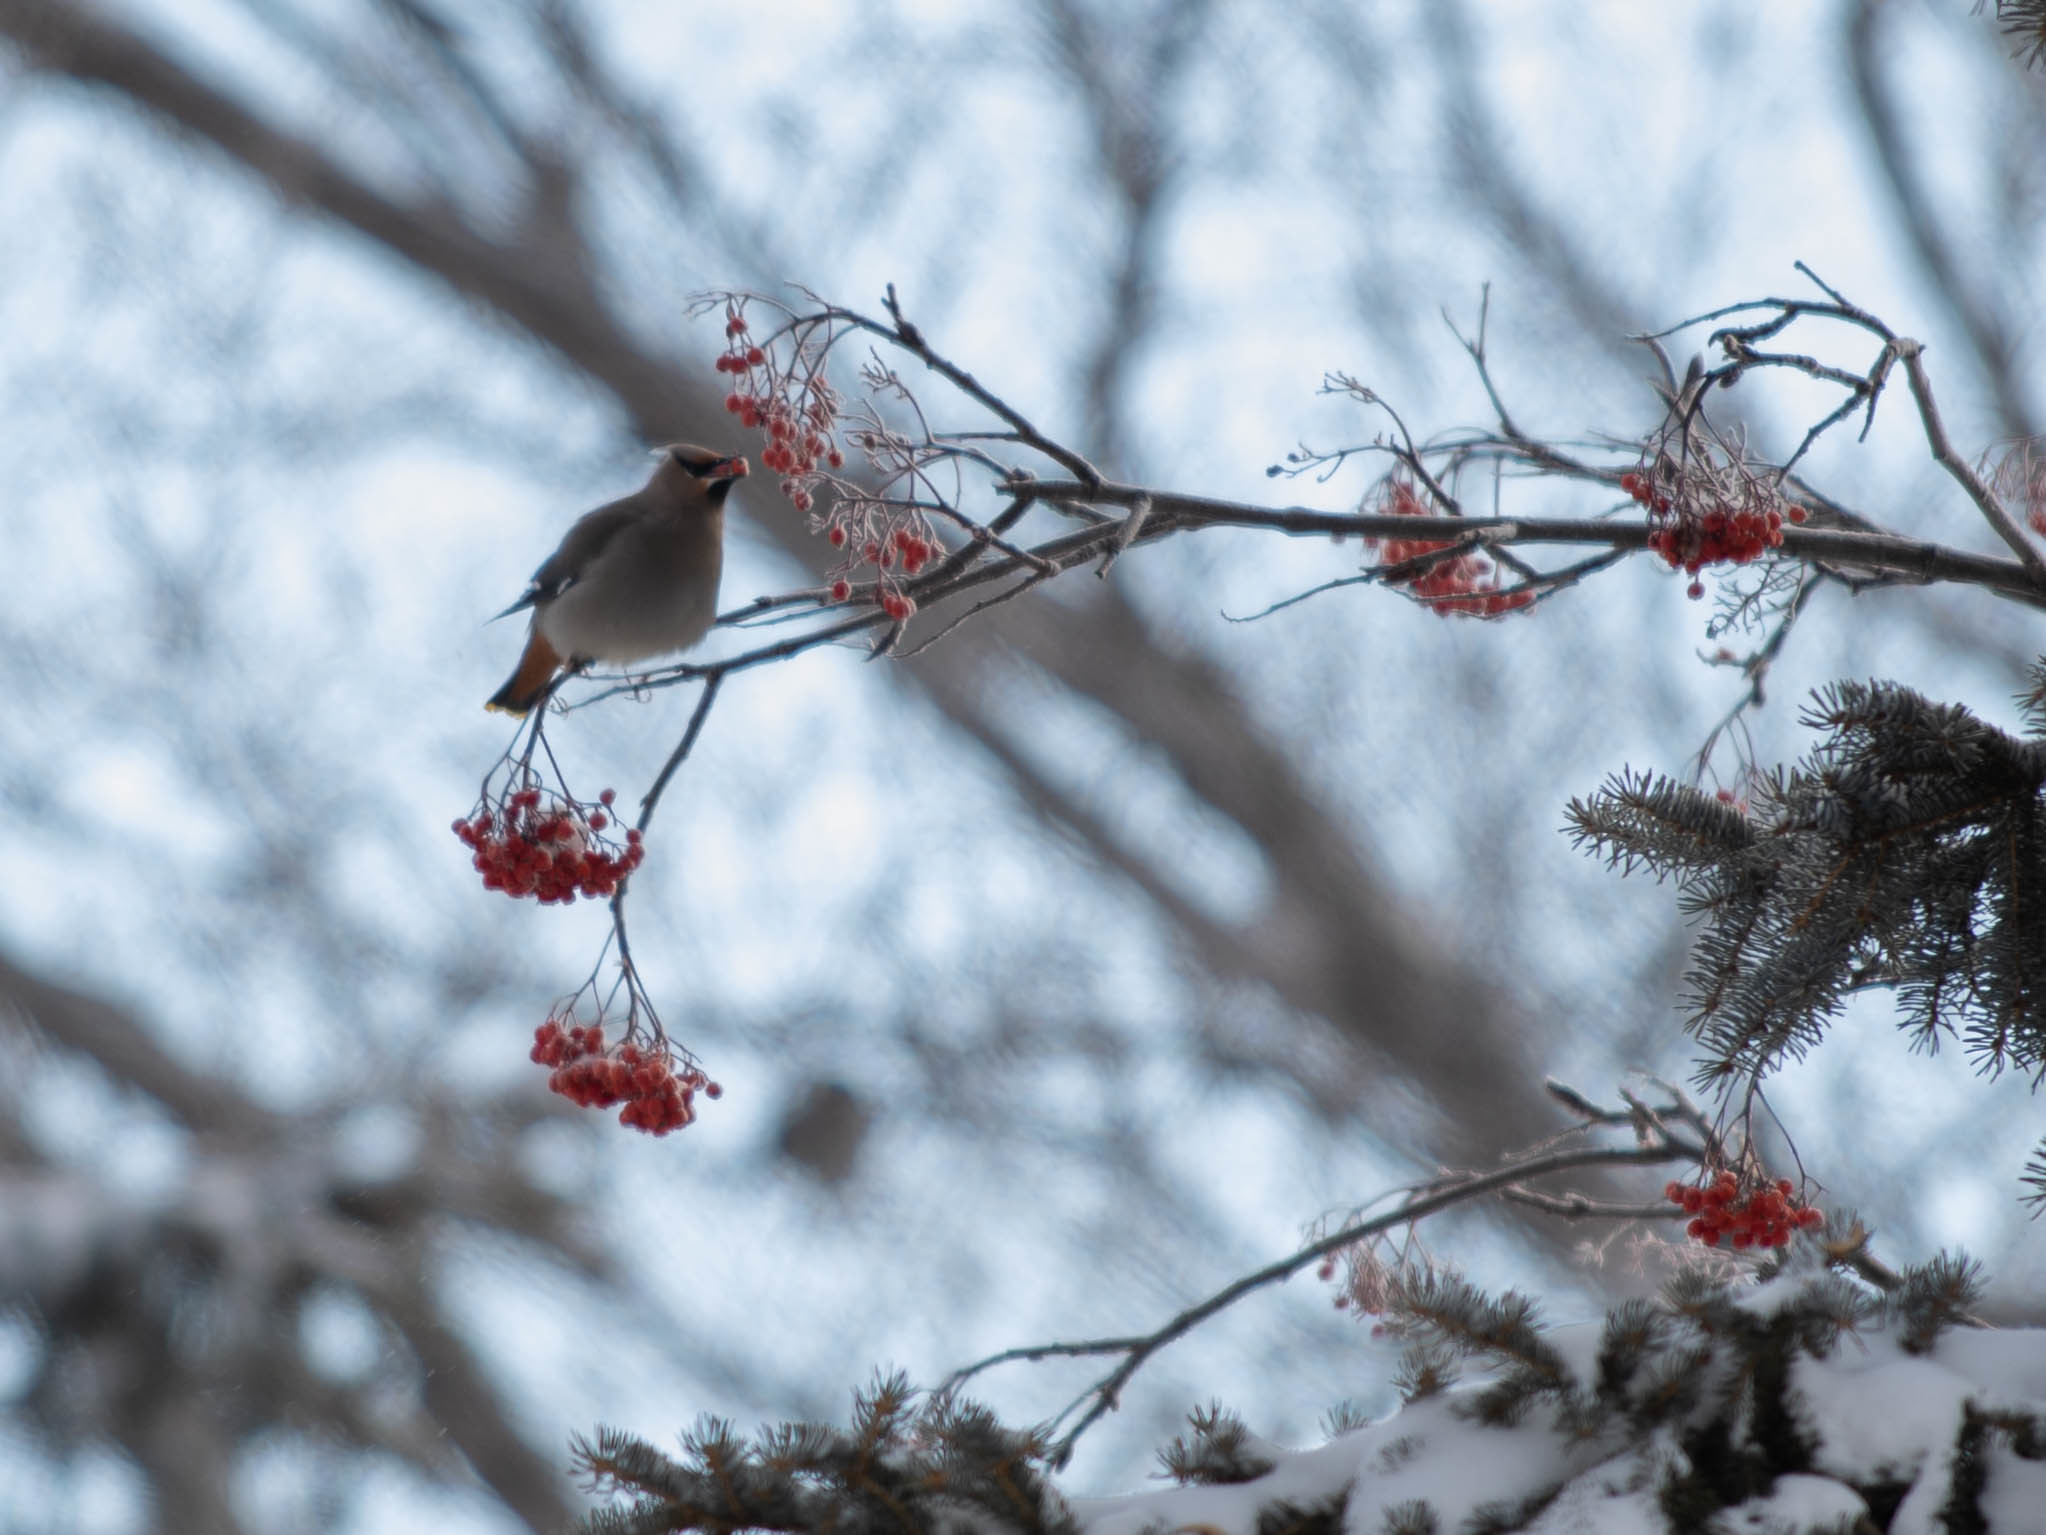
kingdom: Animalia
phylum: Chordata
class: Aves
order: Passeriformes
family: Bombycillidae
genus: Bombycilla
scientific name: Bombycilla garrulus
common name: Bohemian waxwing
